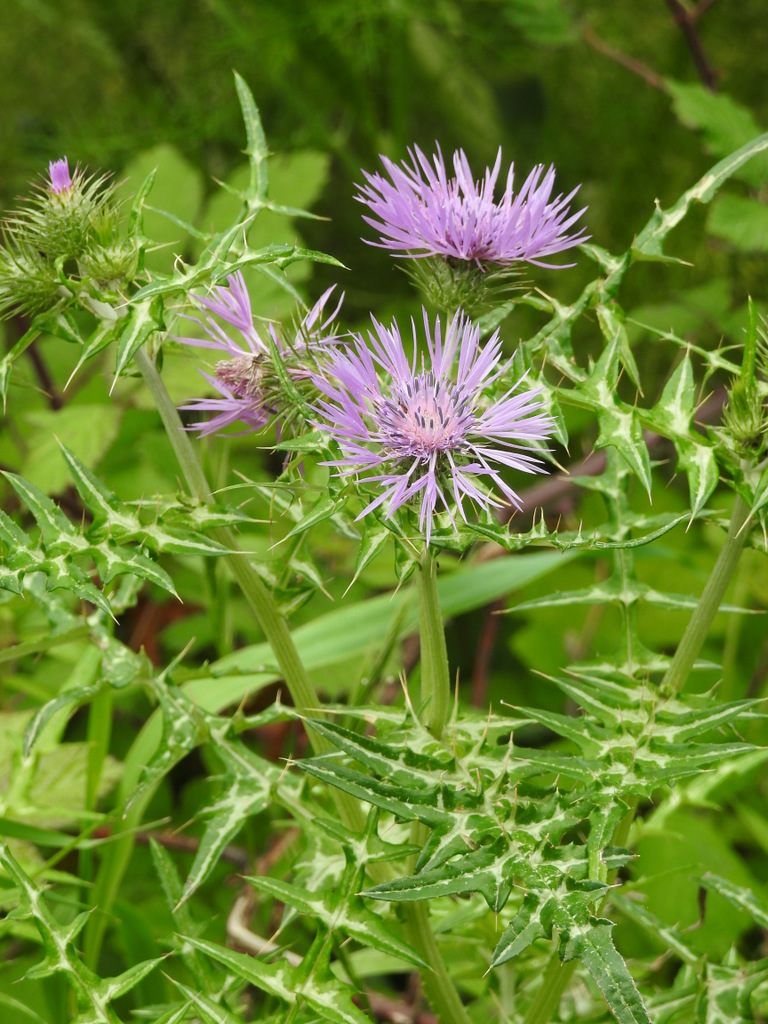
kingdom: Plantae
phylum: Tracheophyta
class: Magnoliopsida
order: Asterales
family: Asteraceae
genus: Galactites
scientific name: Galactites tomentosa
